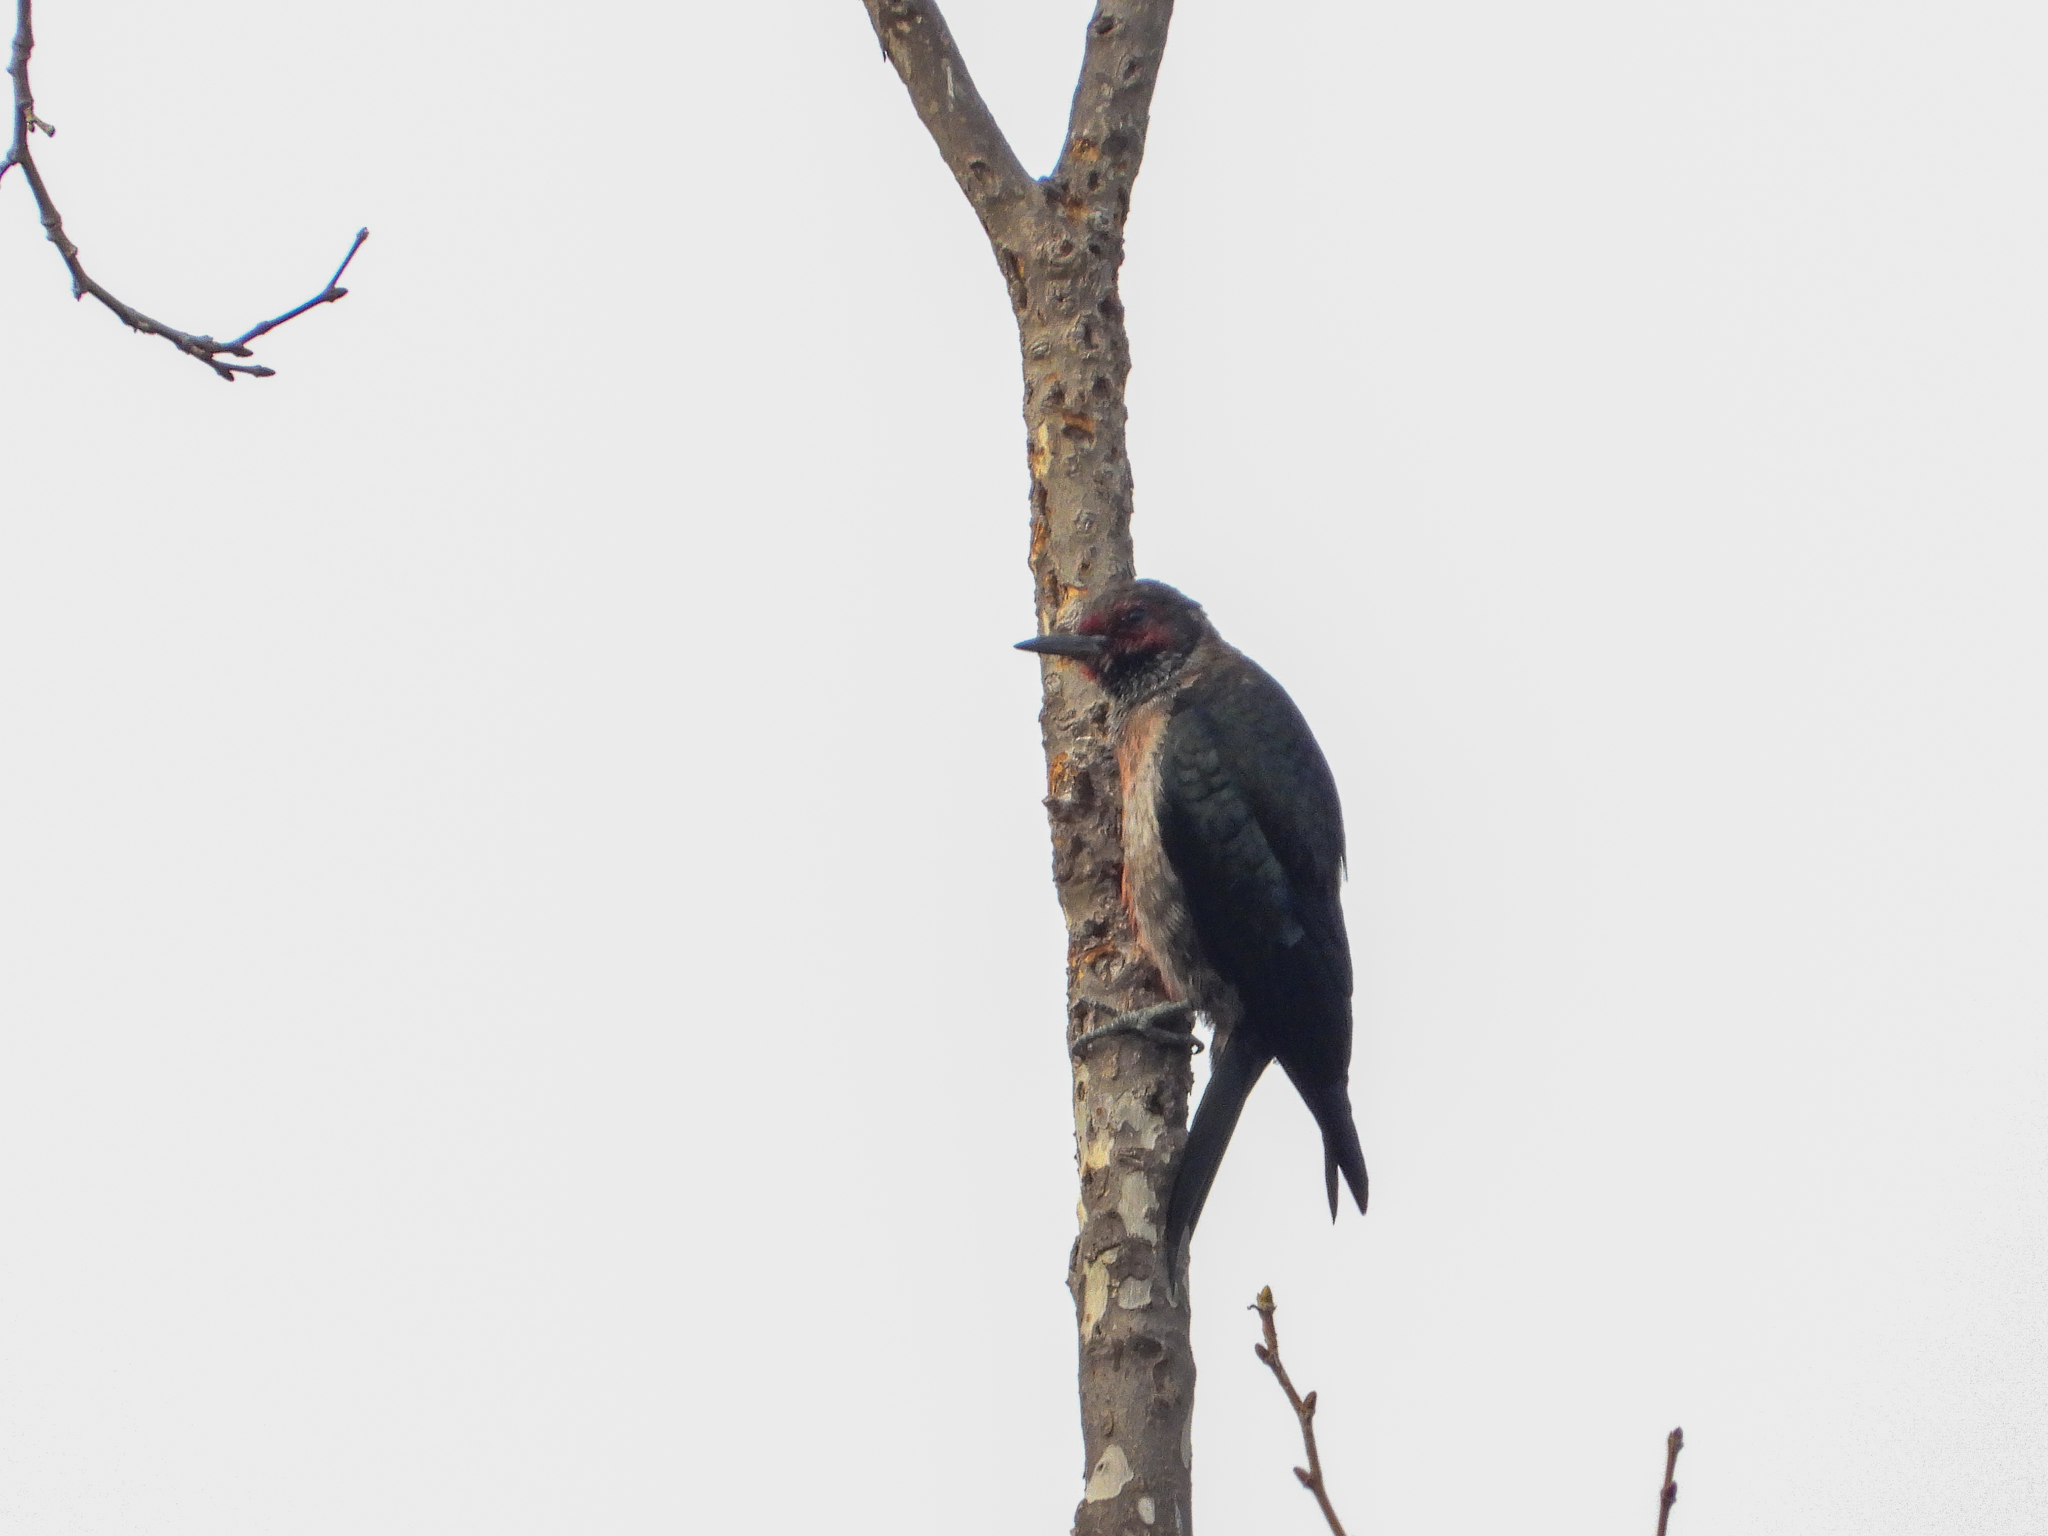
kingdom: Animalia
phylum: Chordata
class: Aves
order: Piciformes
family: Picidae
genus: Melanerpes
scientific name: Melanerpes lewis
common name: Lewis's woodpecker
